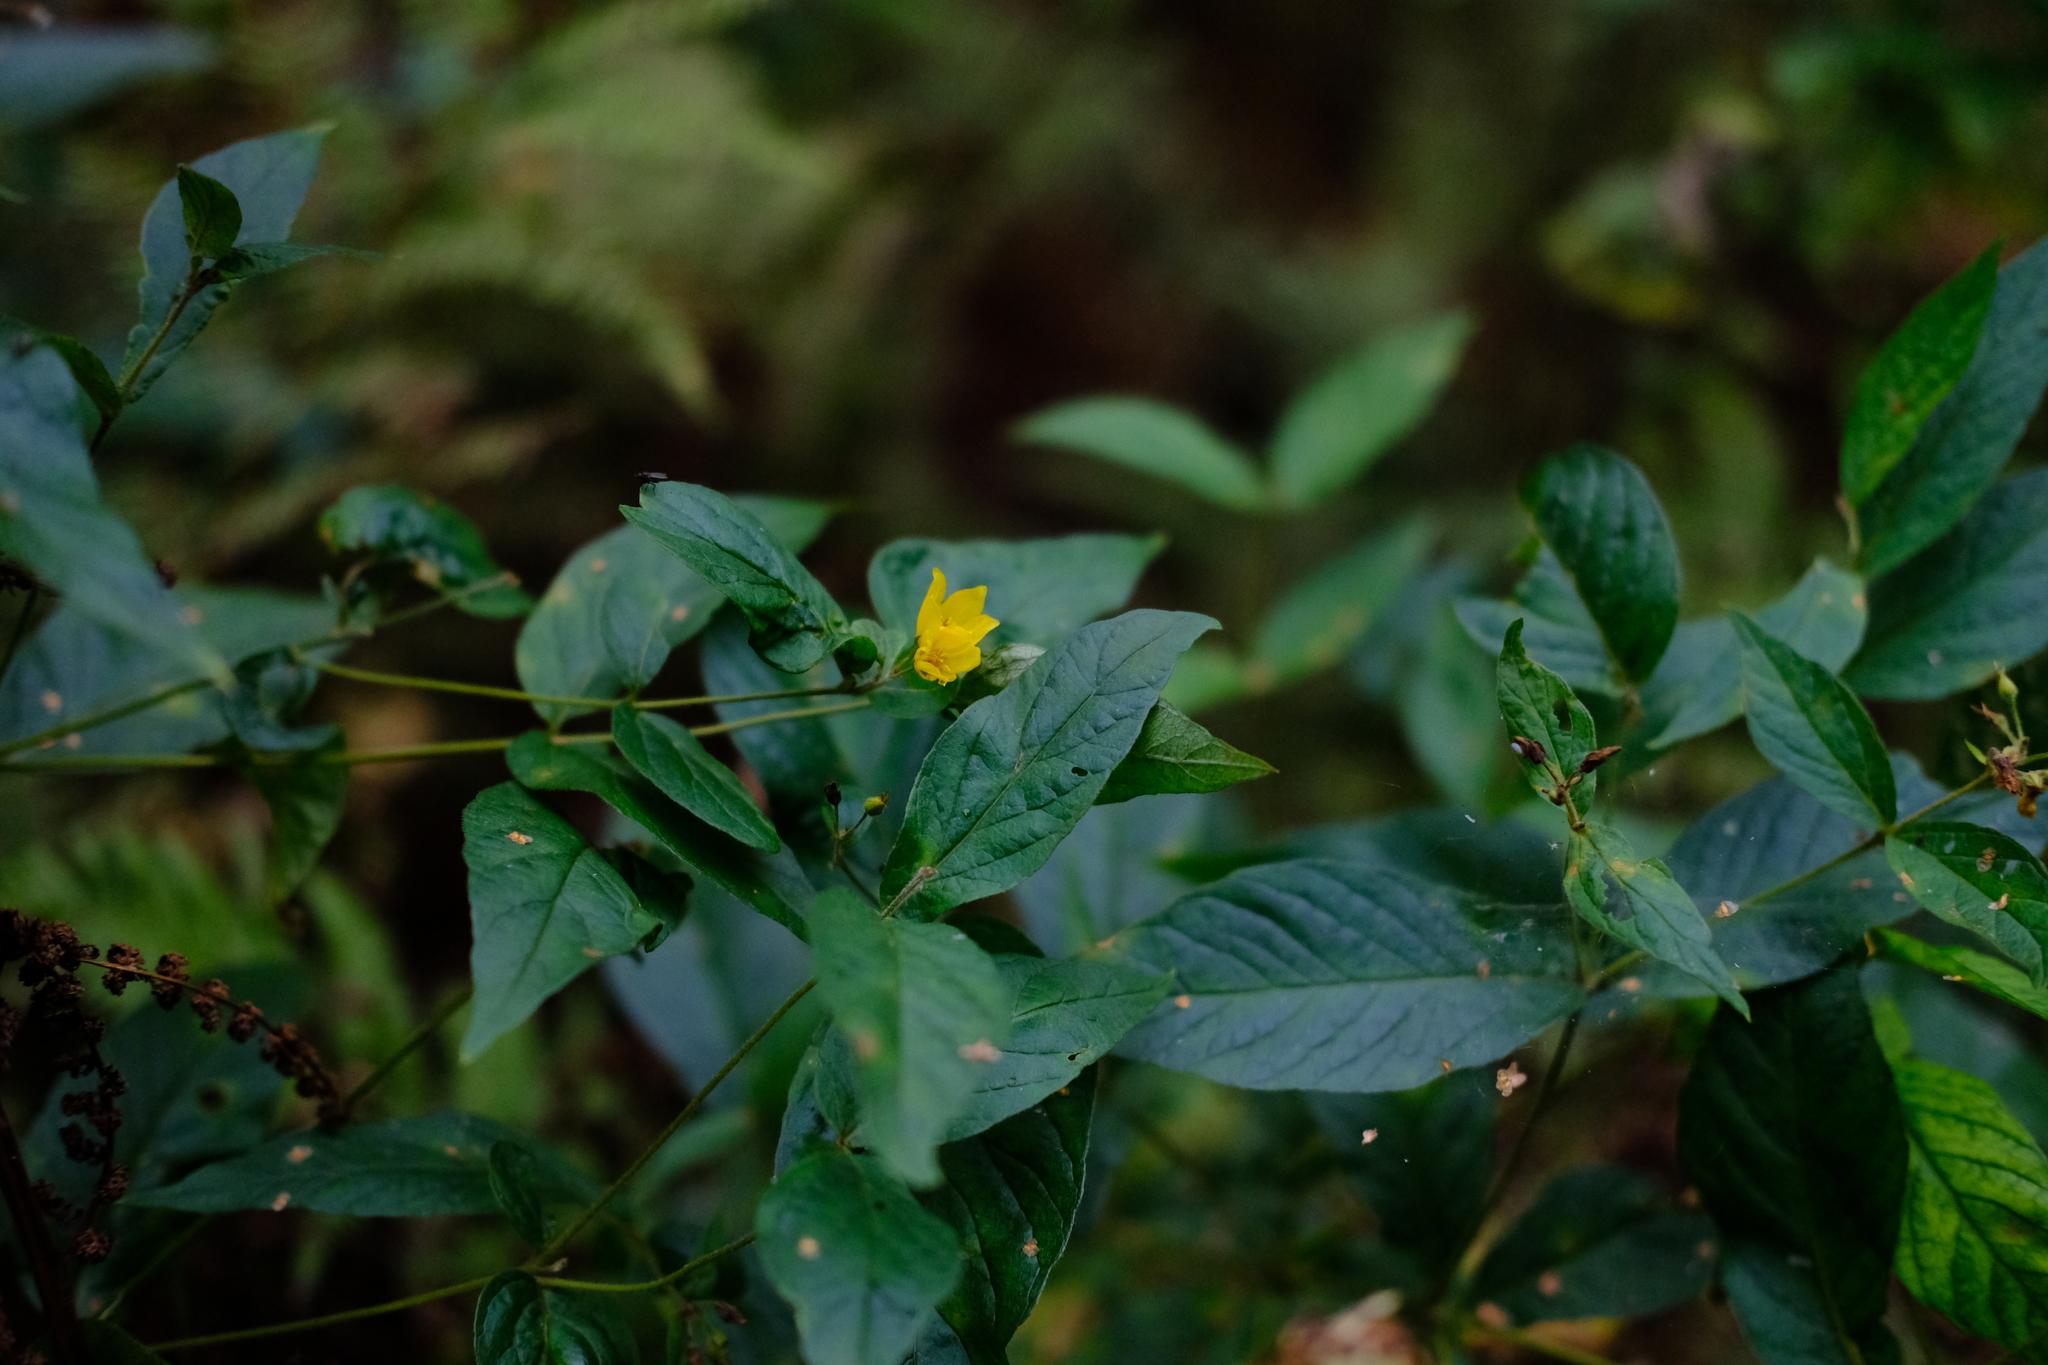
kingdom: Plantae
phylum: Tracheophyta
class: Magnoliopsida
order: Ericales
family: Primulaceae
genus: Lysimachia
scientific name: Lysimachia vulgaris
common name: Yellow loosestrife
